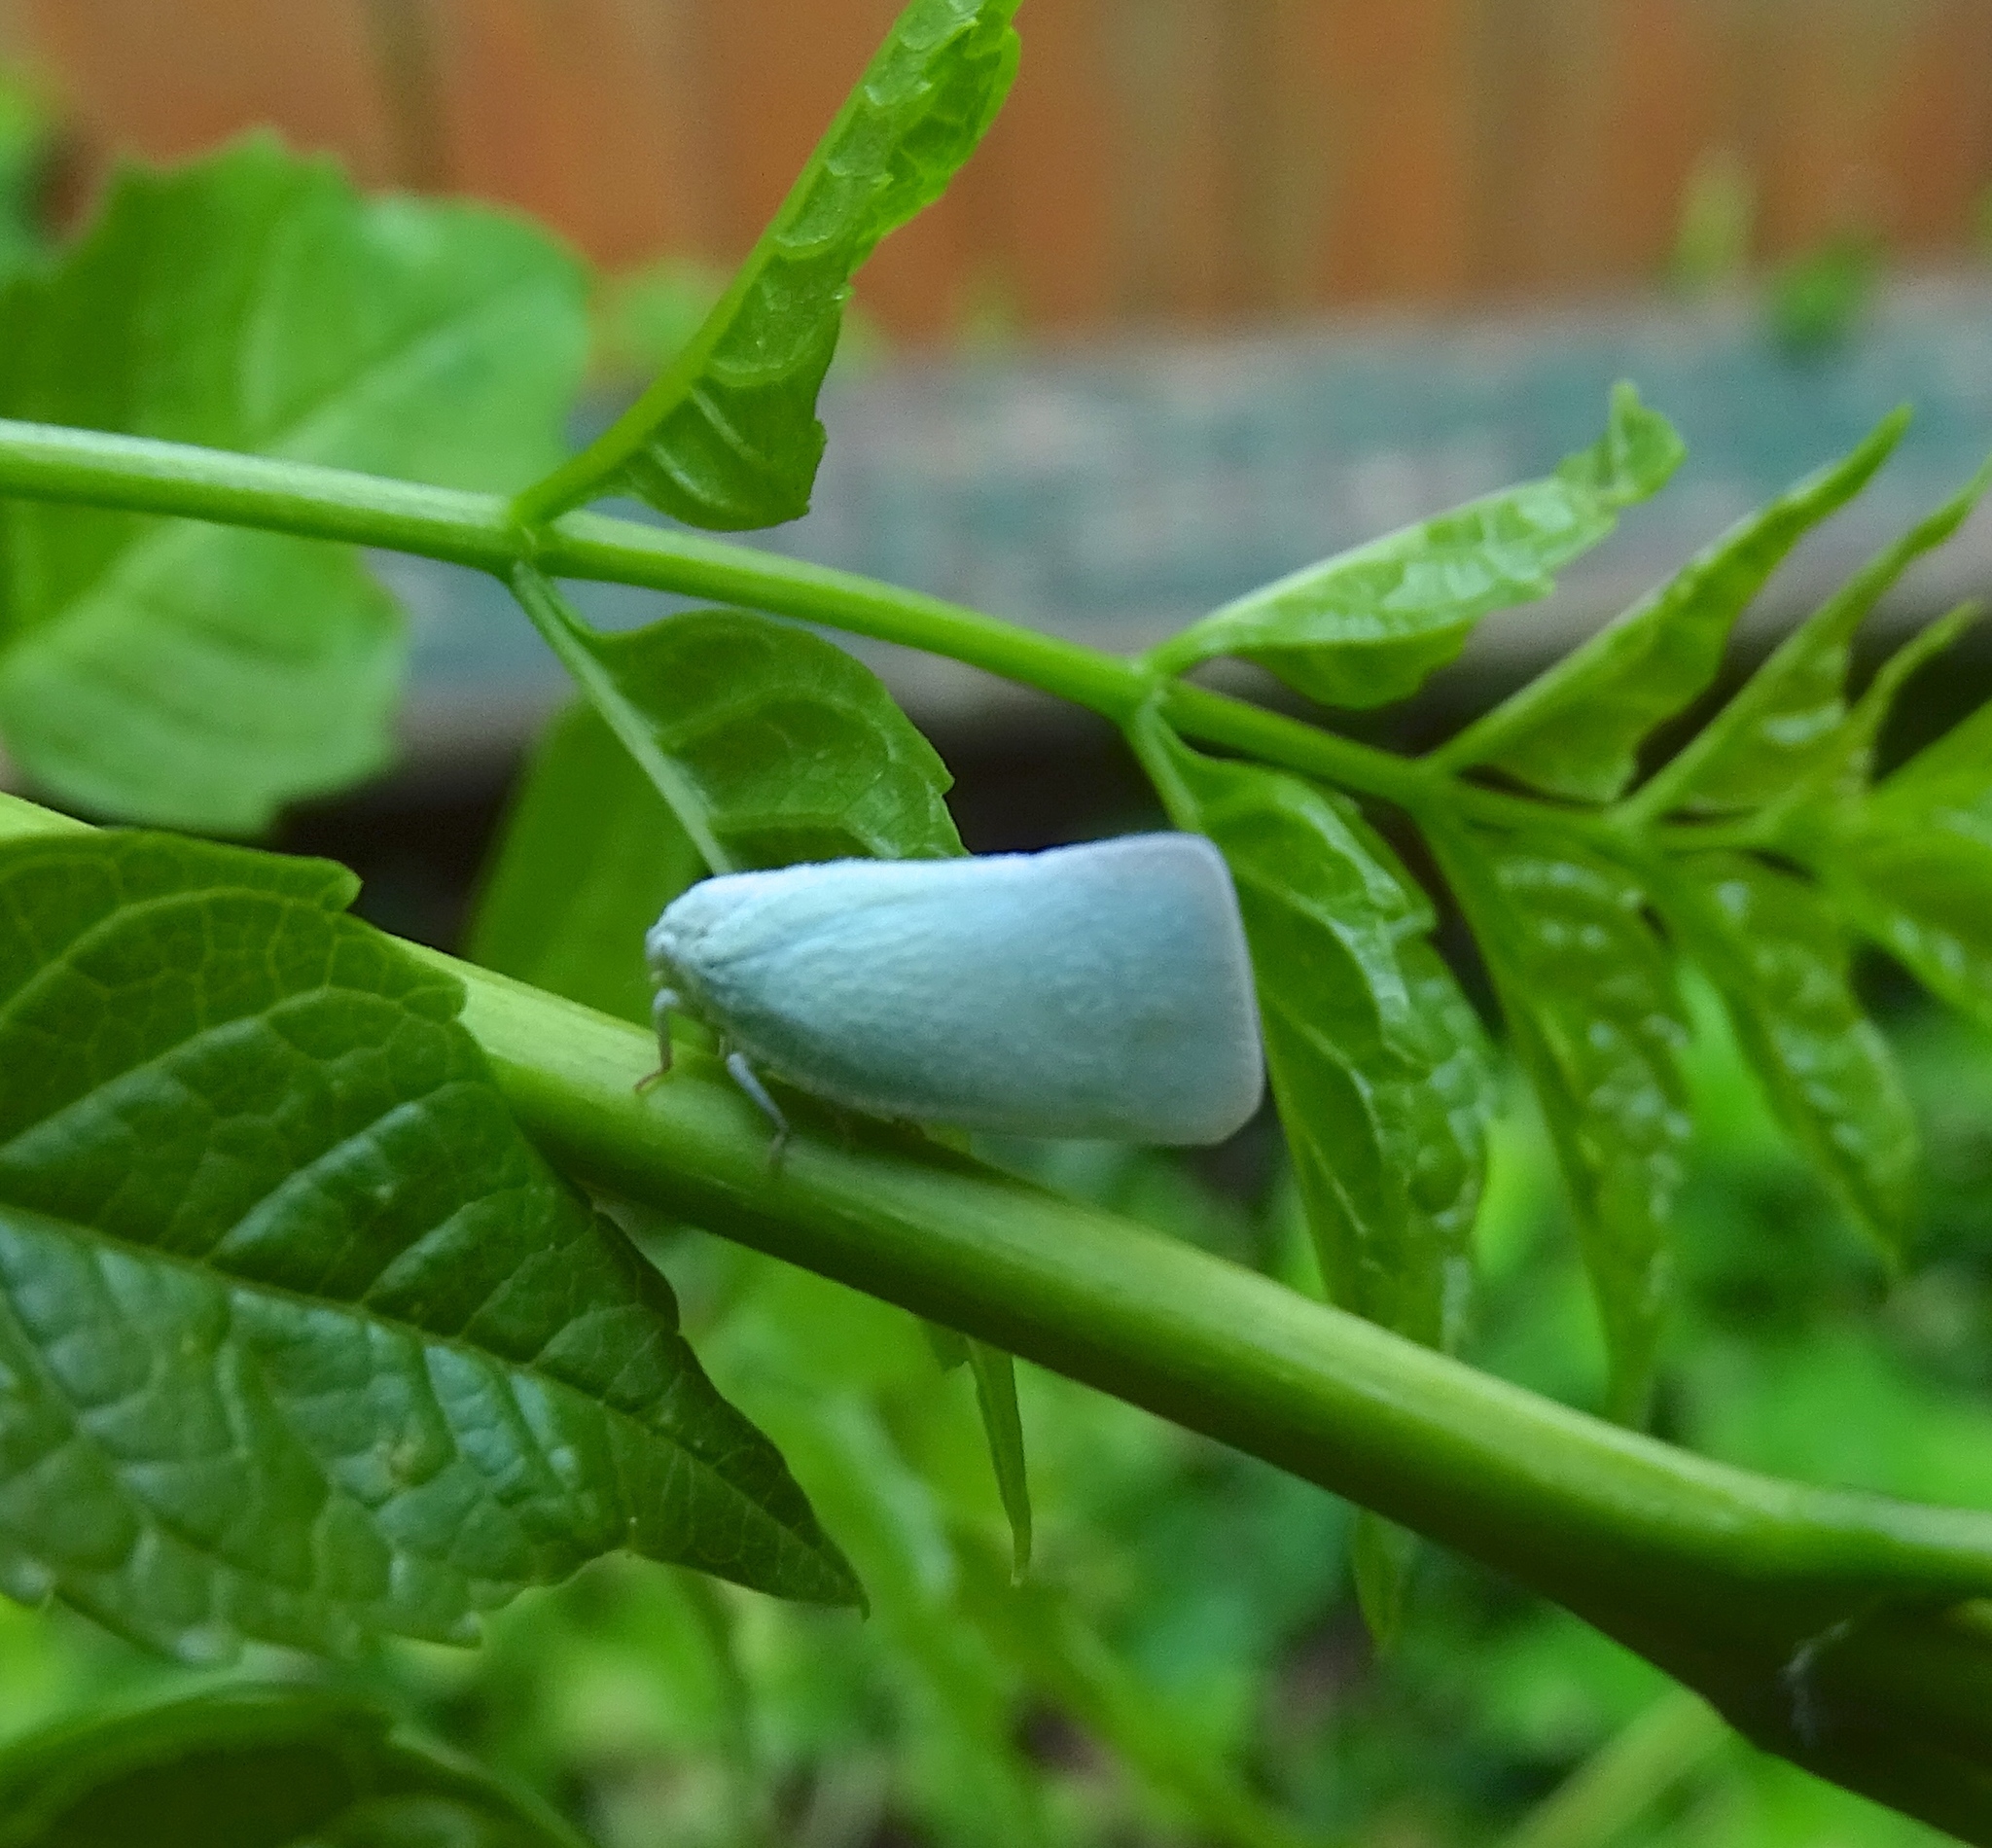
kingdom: Animalia
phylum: Arthropoda
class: Insecta
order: Hemiptera
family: Flatidae
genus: Flatormenis
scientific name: Flatormenis proxima
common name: Northern flatid planthopper
